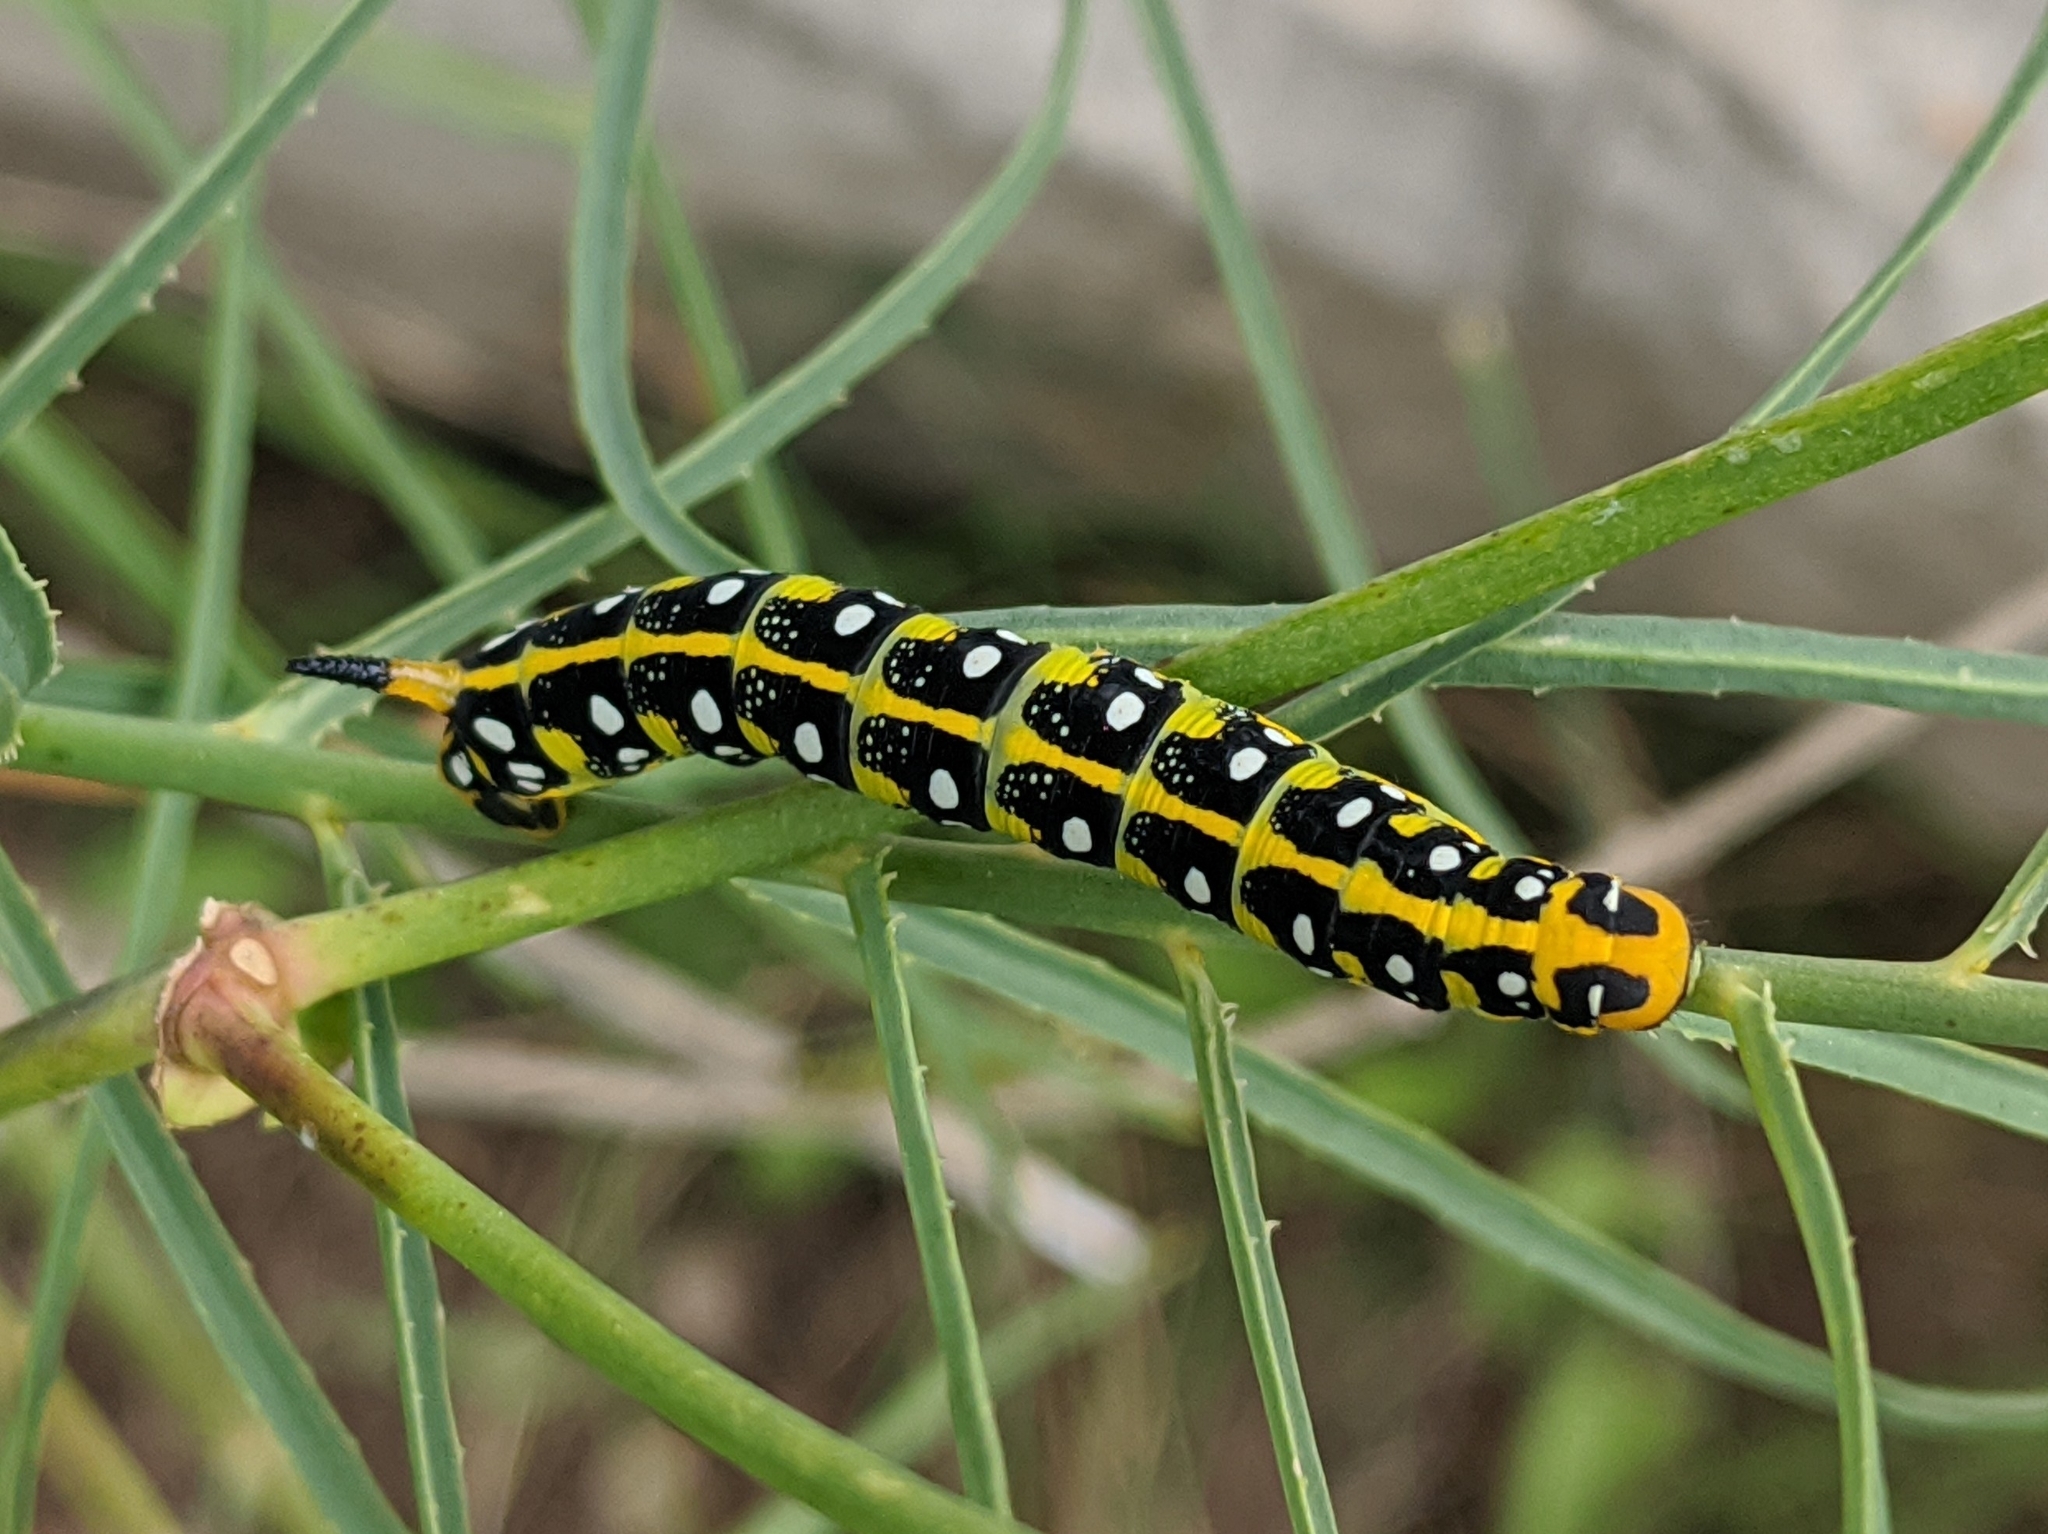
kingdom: Animalia
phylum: Arthropoda
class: Insecta
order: Lepidoptera
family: Sphingidae
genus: Hyles
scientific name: Hyles euphorbiae
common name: Spurge hawk-moth
